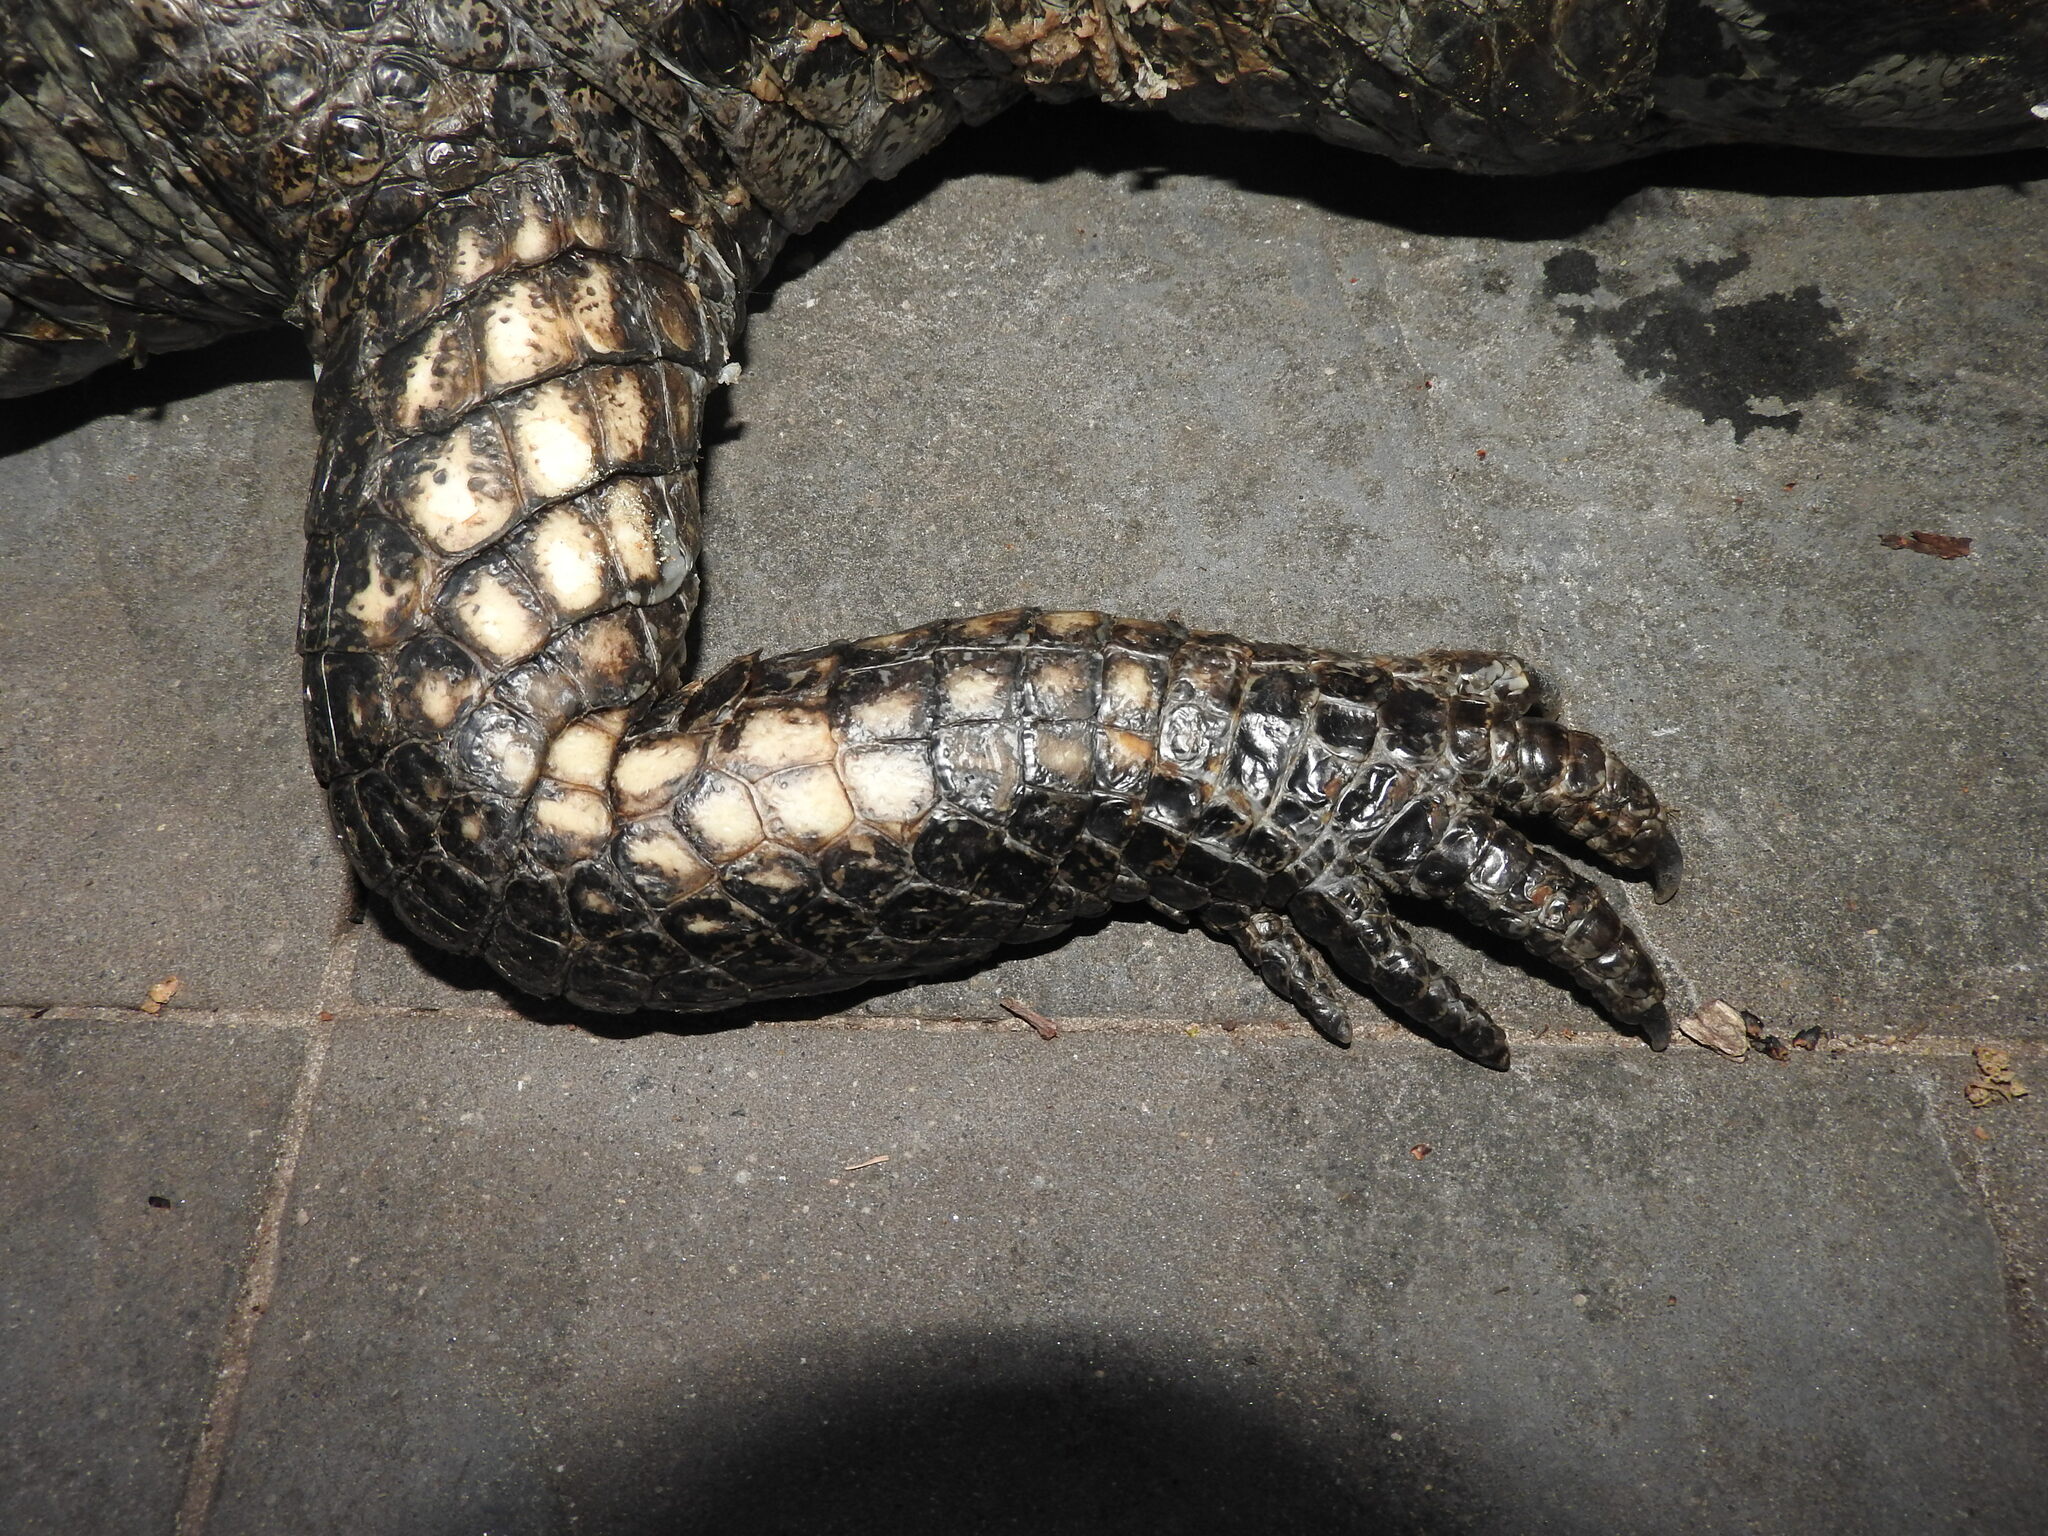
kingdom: Animalia
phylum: Chordata
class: Crocodylia
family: Alligatoridae
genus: Caiman
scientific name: Caiman yacare
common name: Yacare caiman
